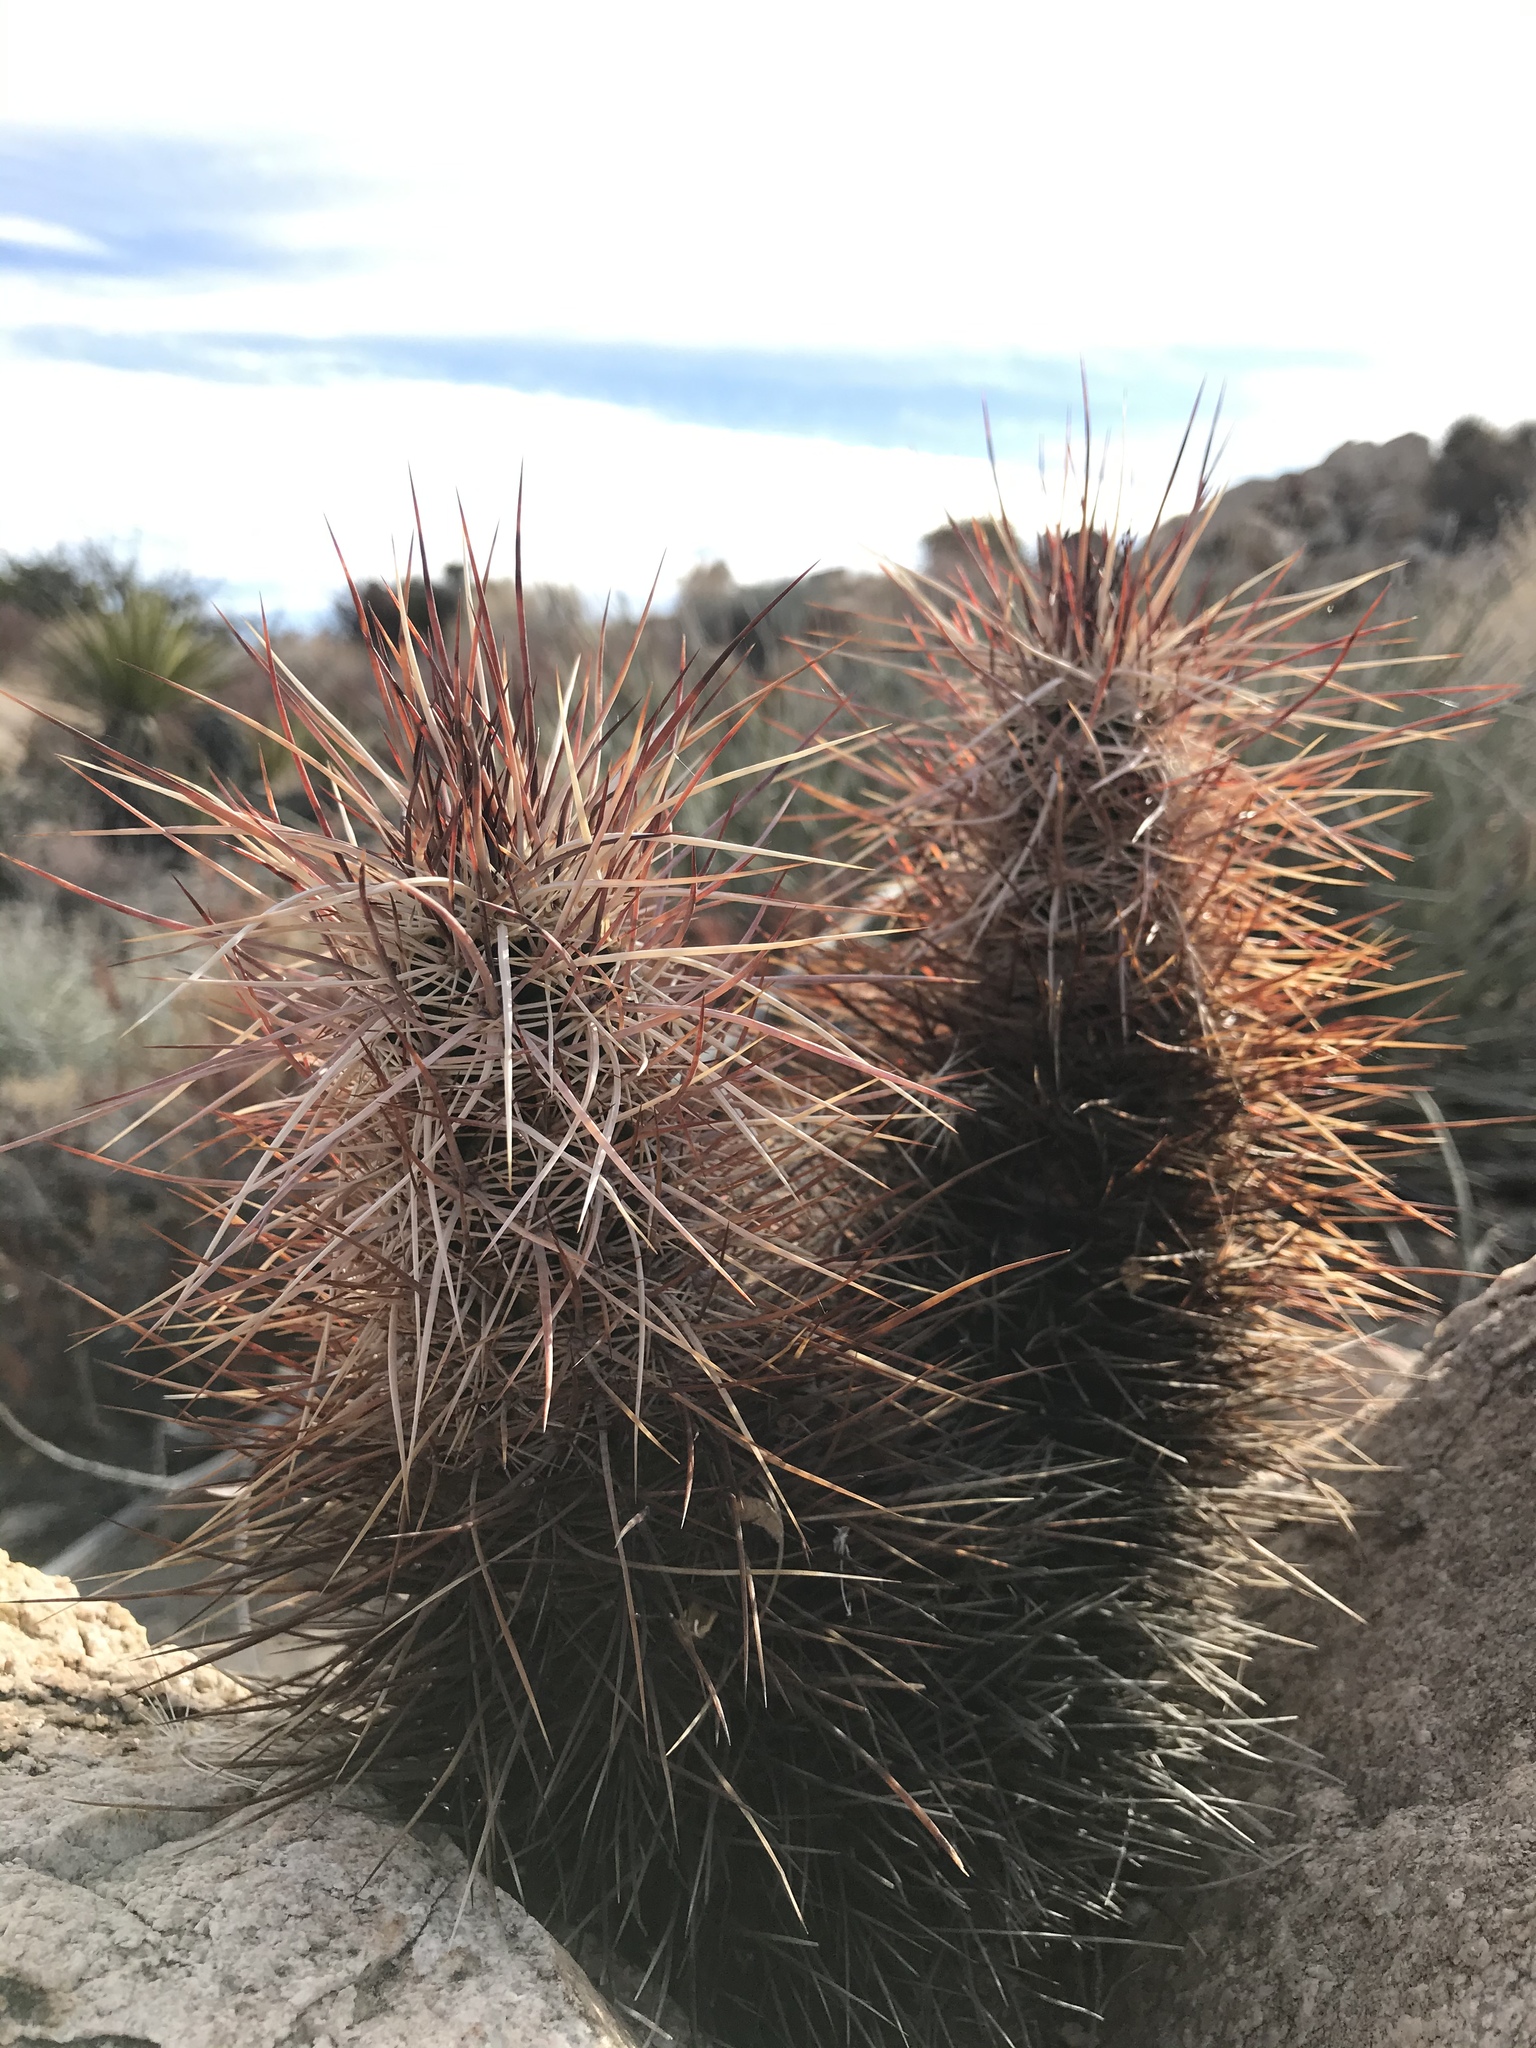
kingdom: Plantae
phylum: Tracheophyta
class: Magnoliopsida
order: Caryophyllales
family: Cactaceae
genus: Echinocereus
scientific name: Echinocereus engelmannii
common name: Engelmann's hedgehog cactus
